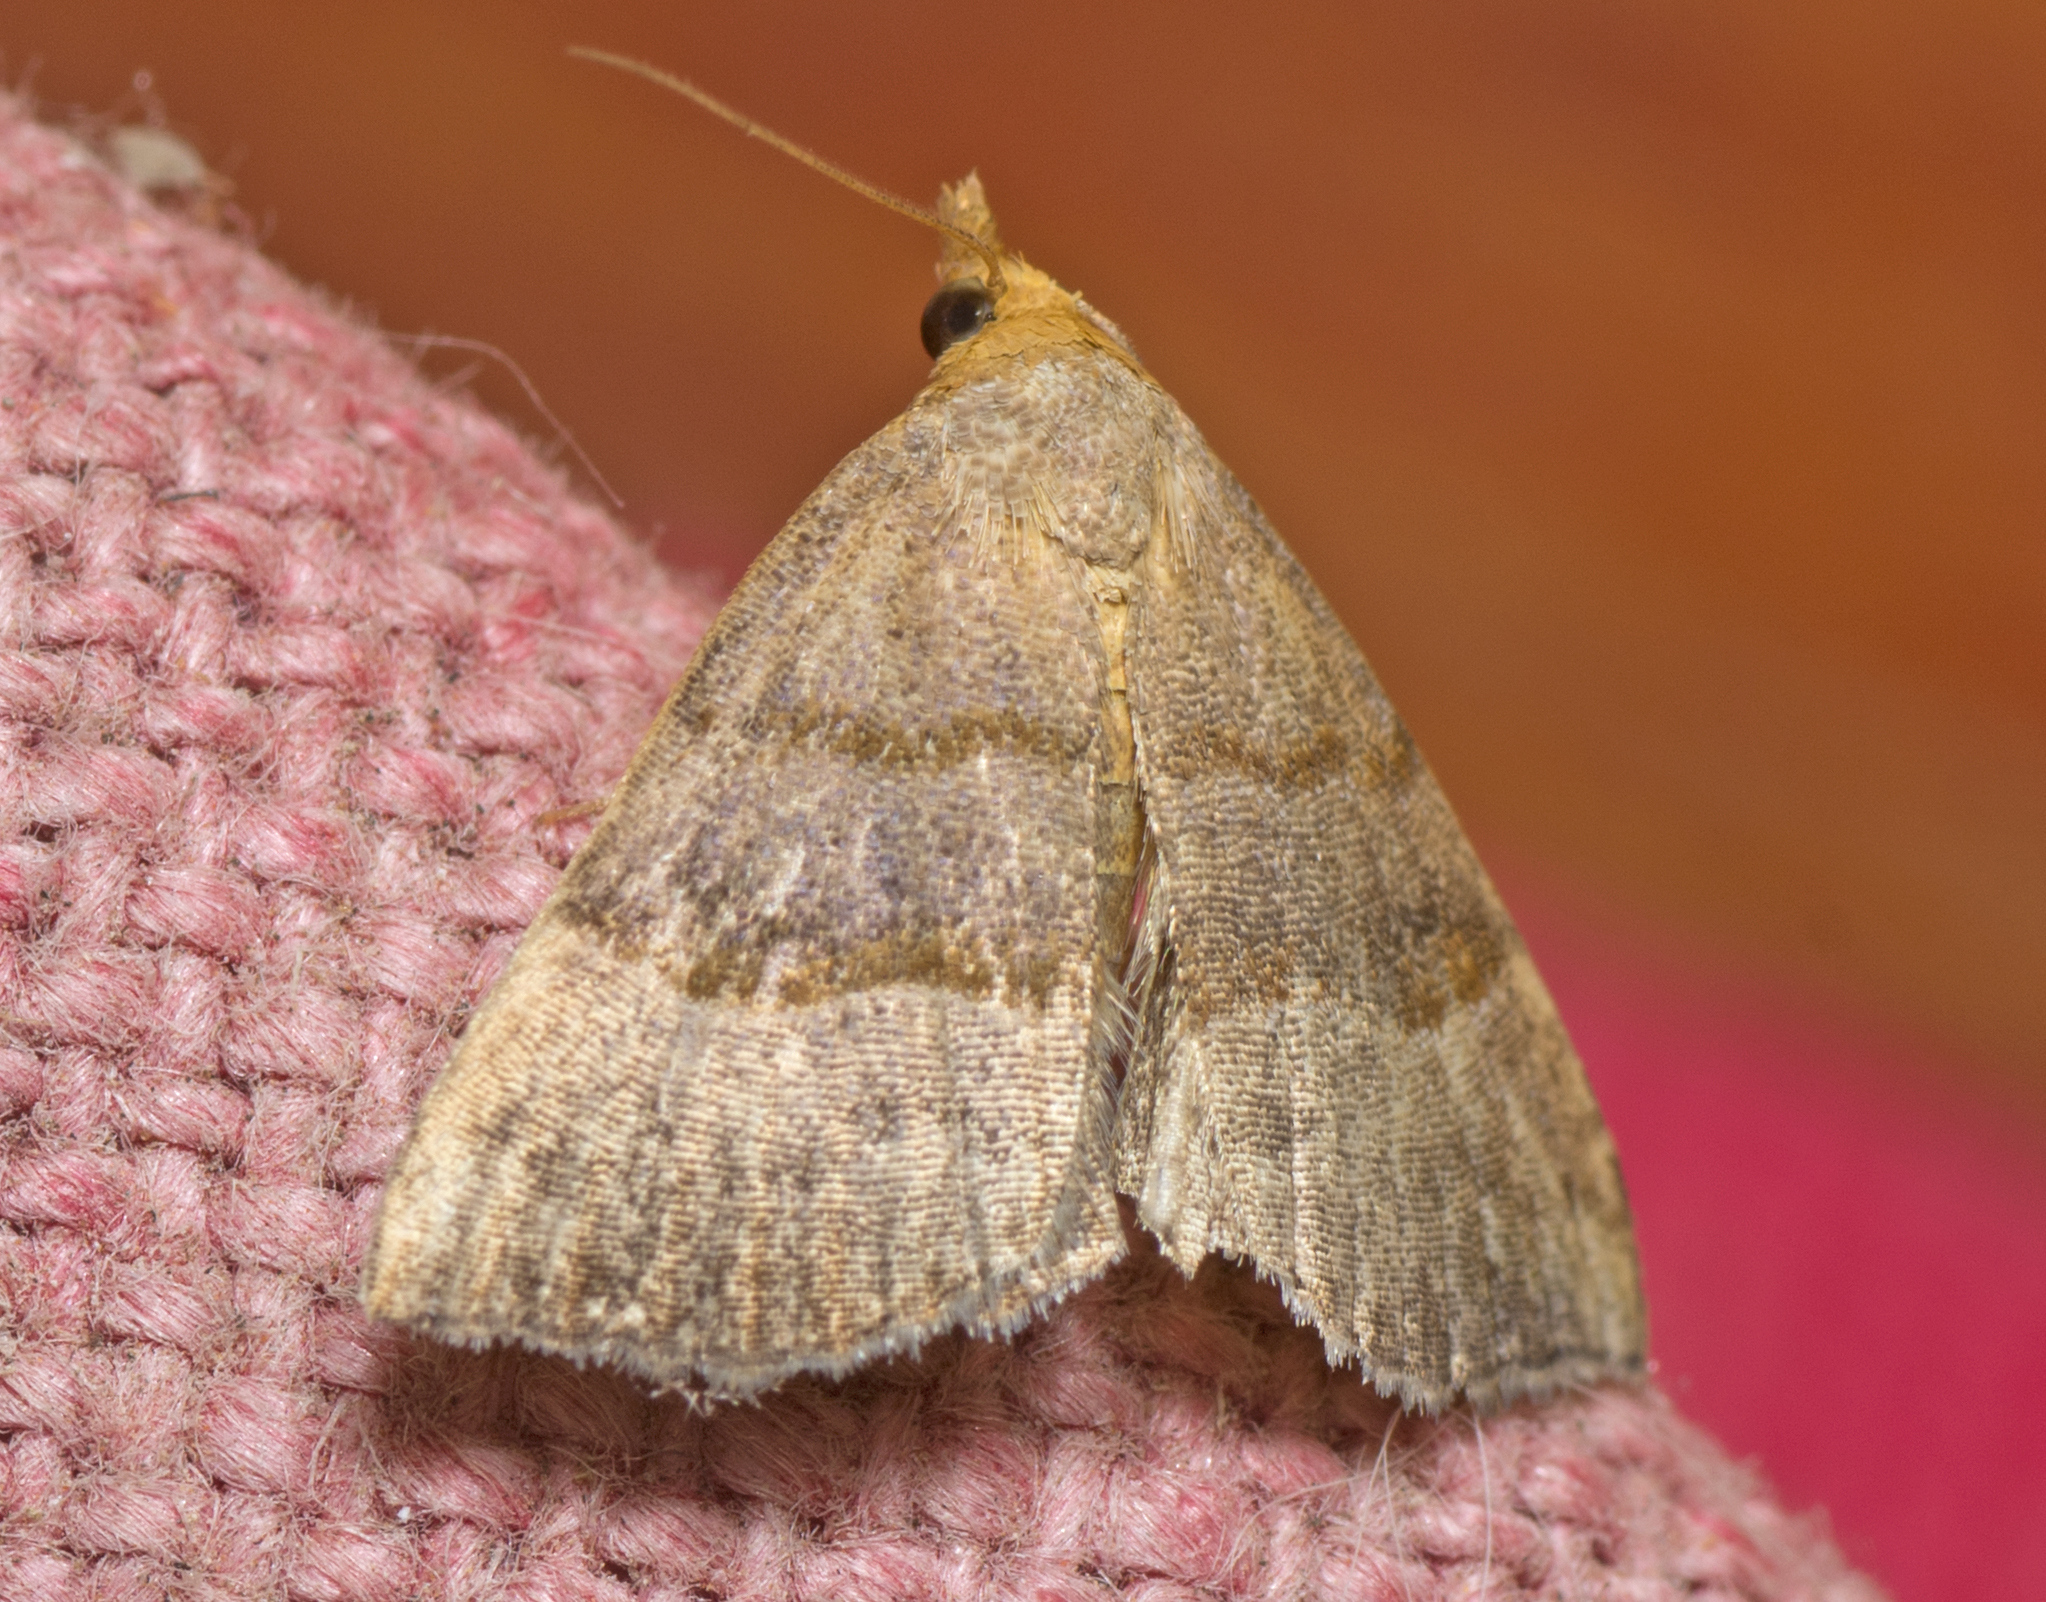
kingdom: Animalia
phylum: Arthropoda
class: Insecta
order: Lepidoptera
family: Erebidae
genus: Meranda
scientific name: Meranda susialis
